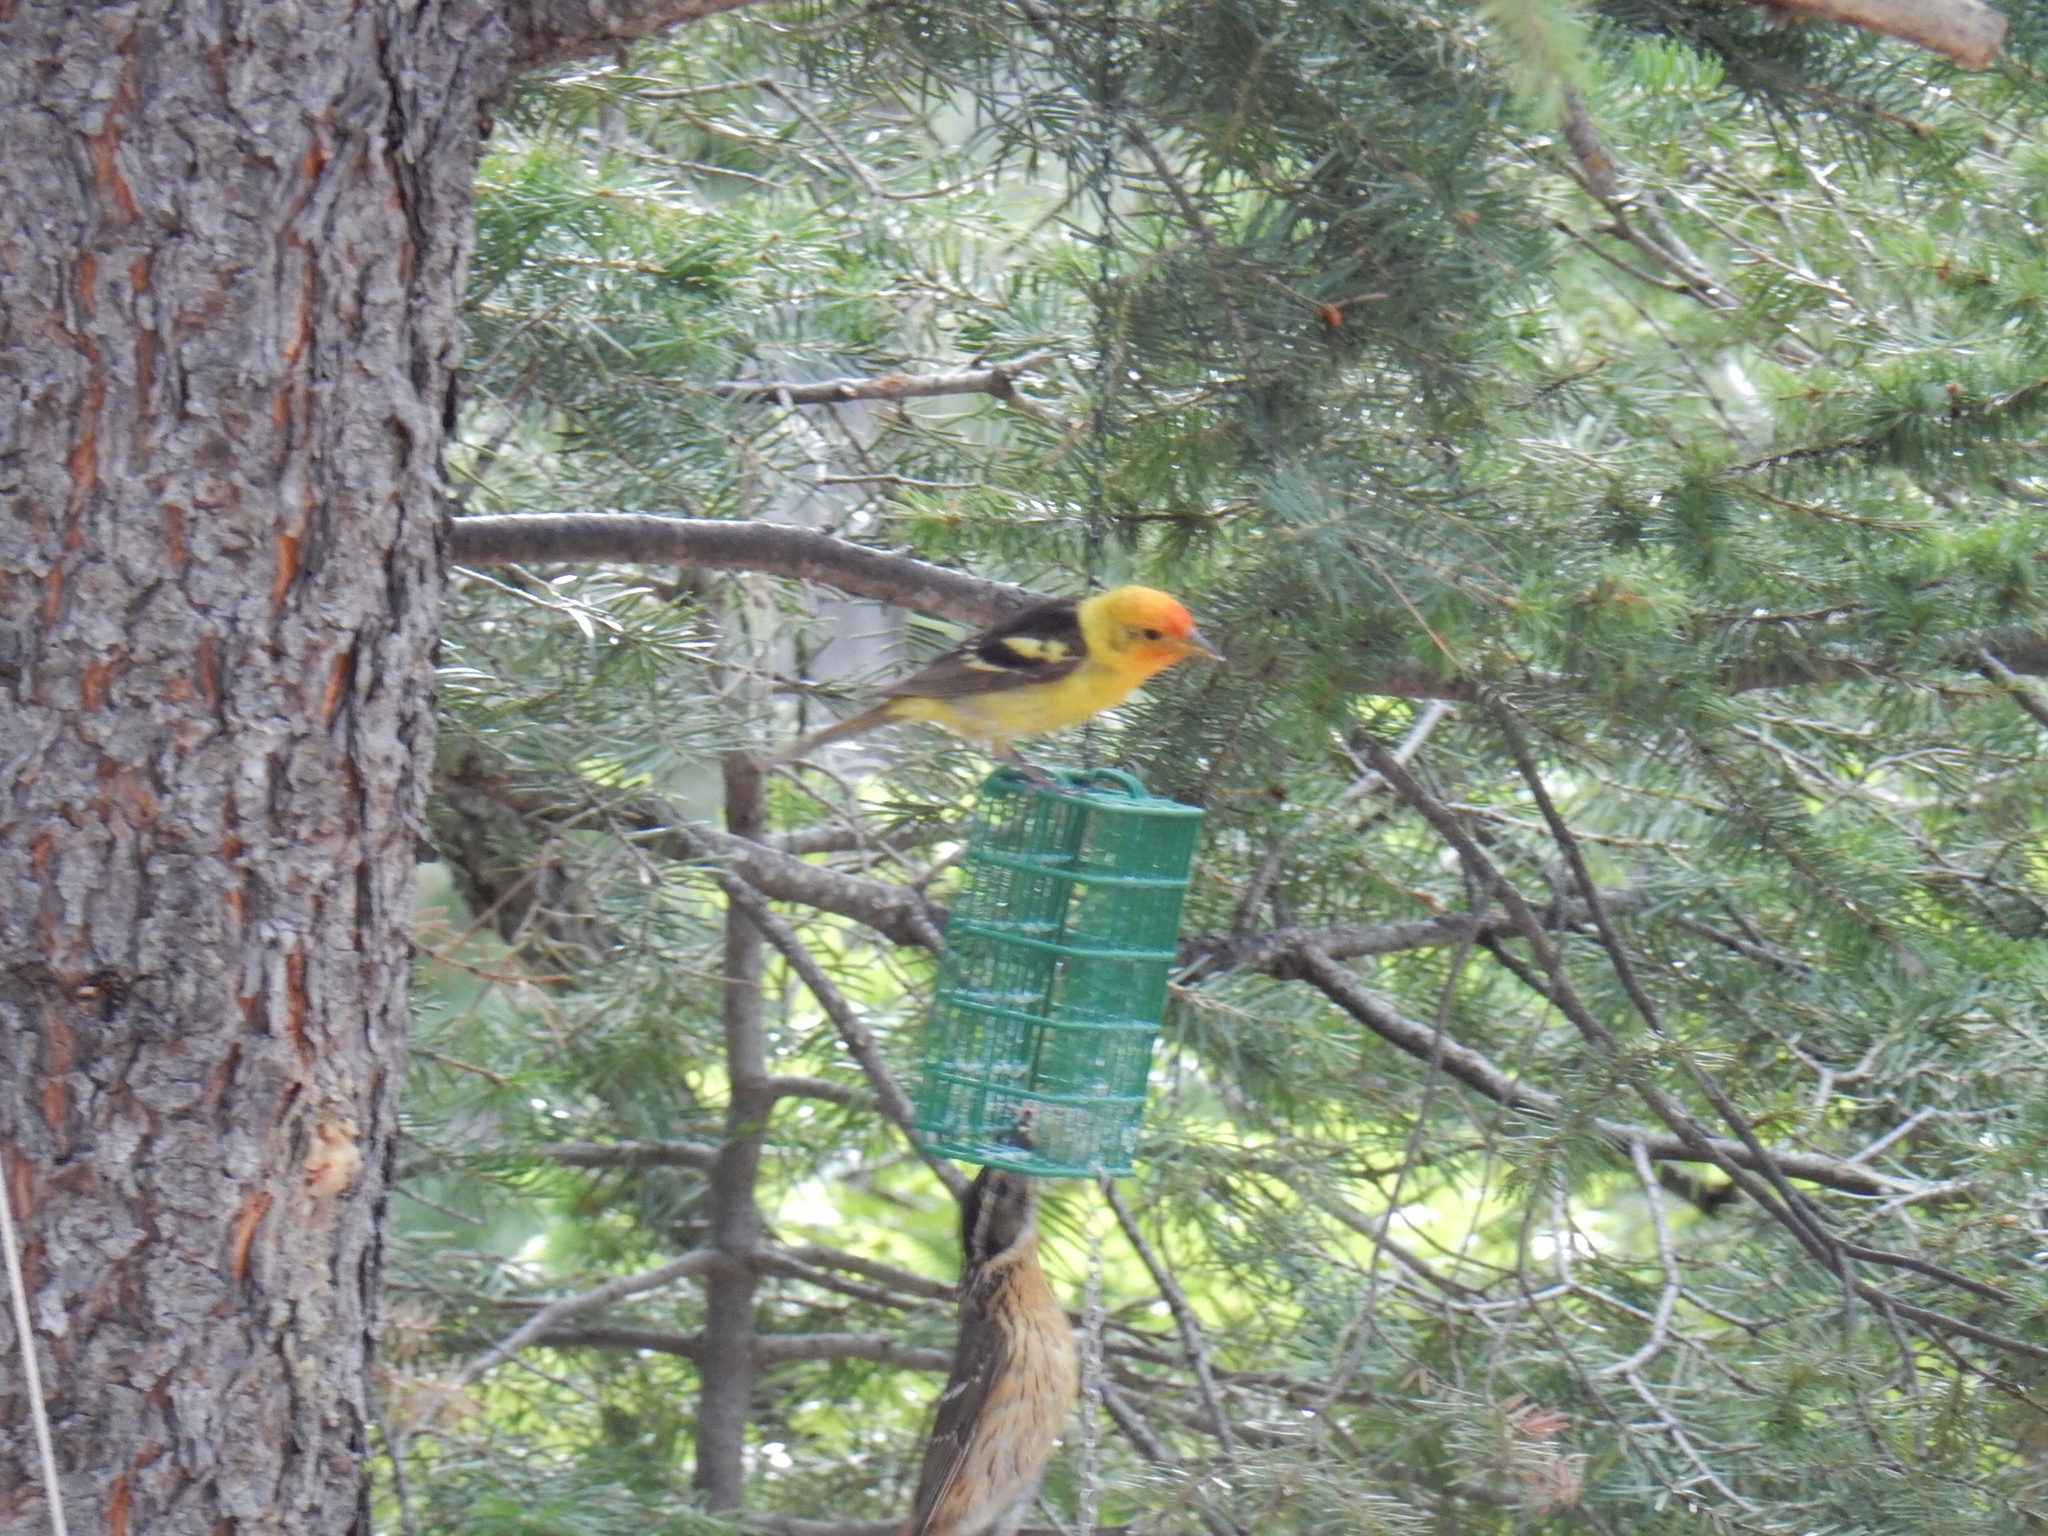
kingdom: Animalia
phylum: Chordata
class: Aves
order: Passeriformes
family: Cardinalidae
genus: Piranga
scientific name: Piranga ludoviciana
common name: Western tanager
